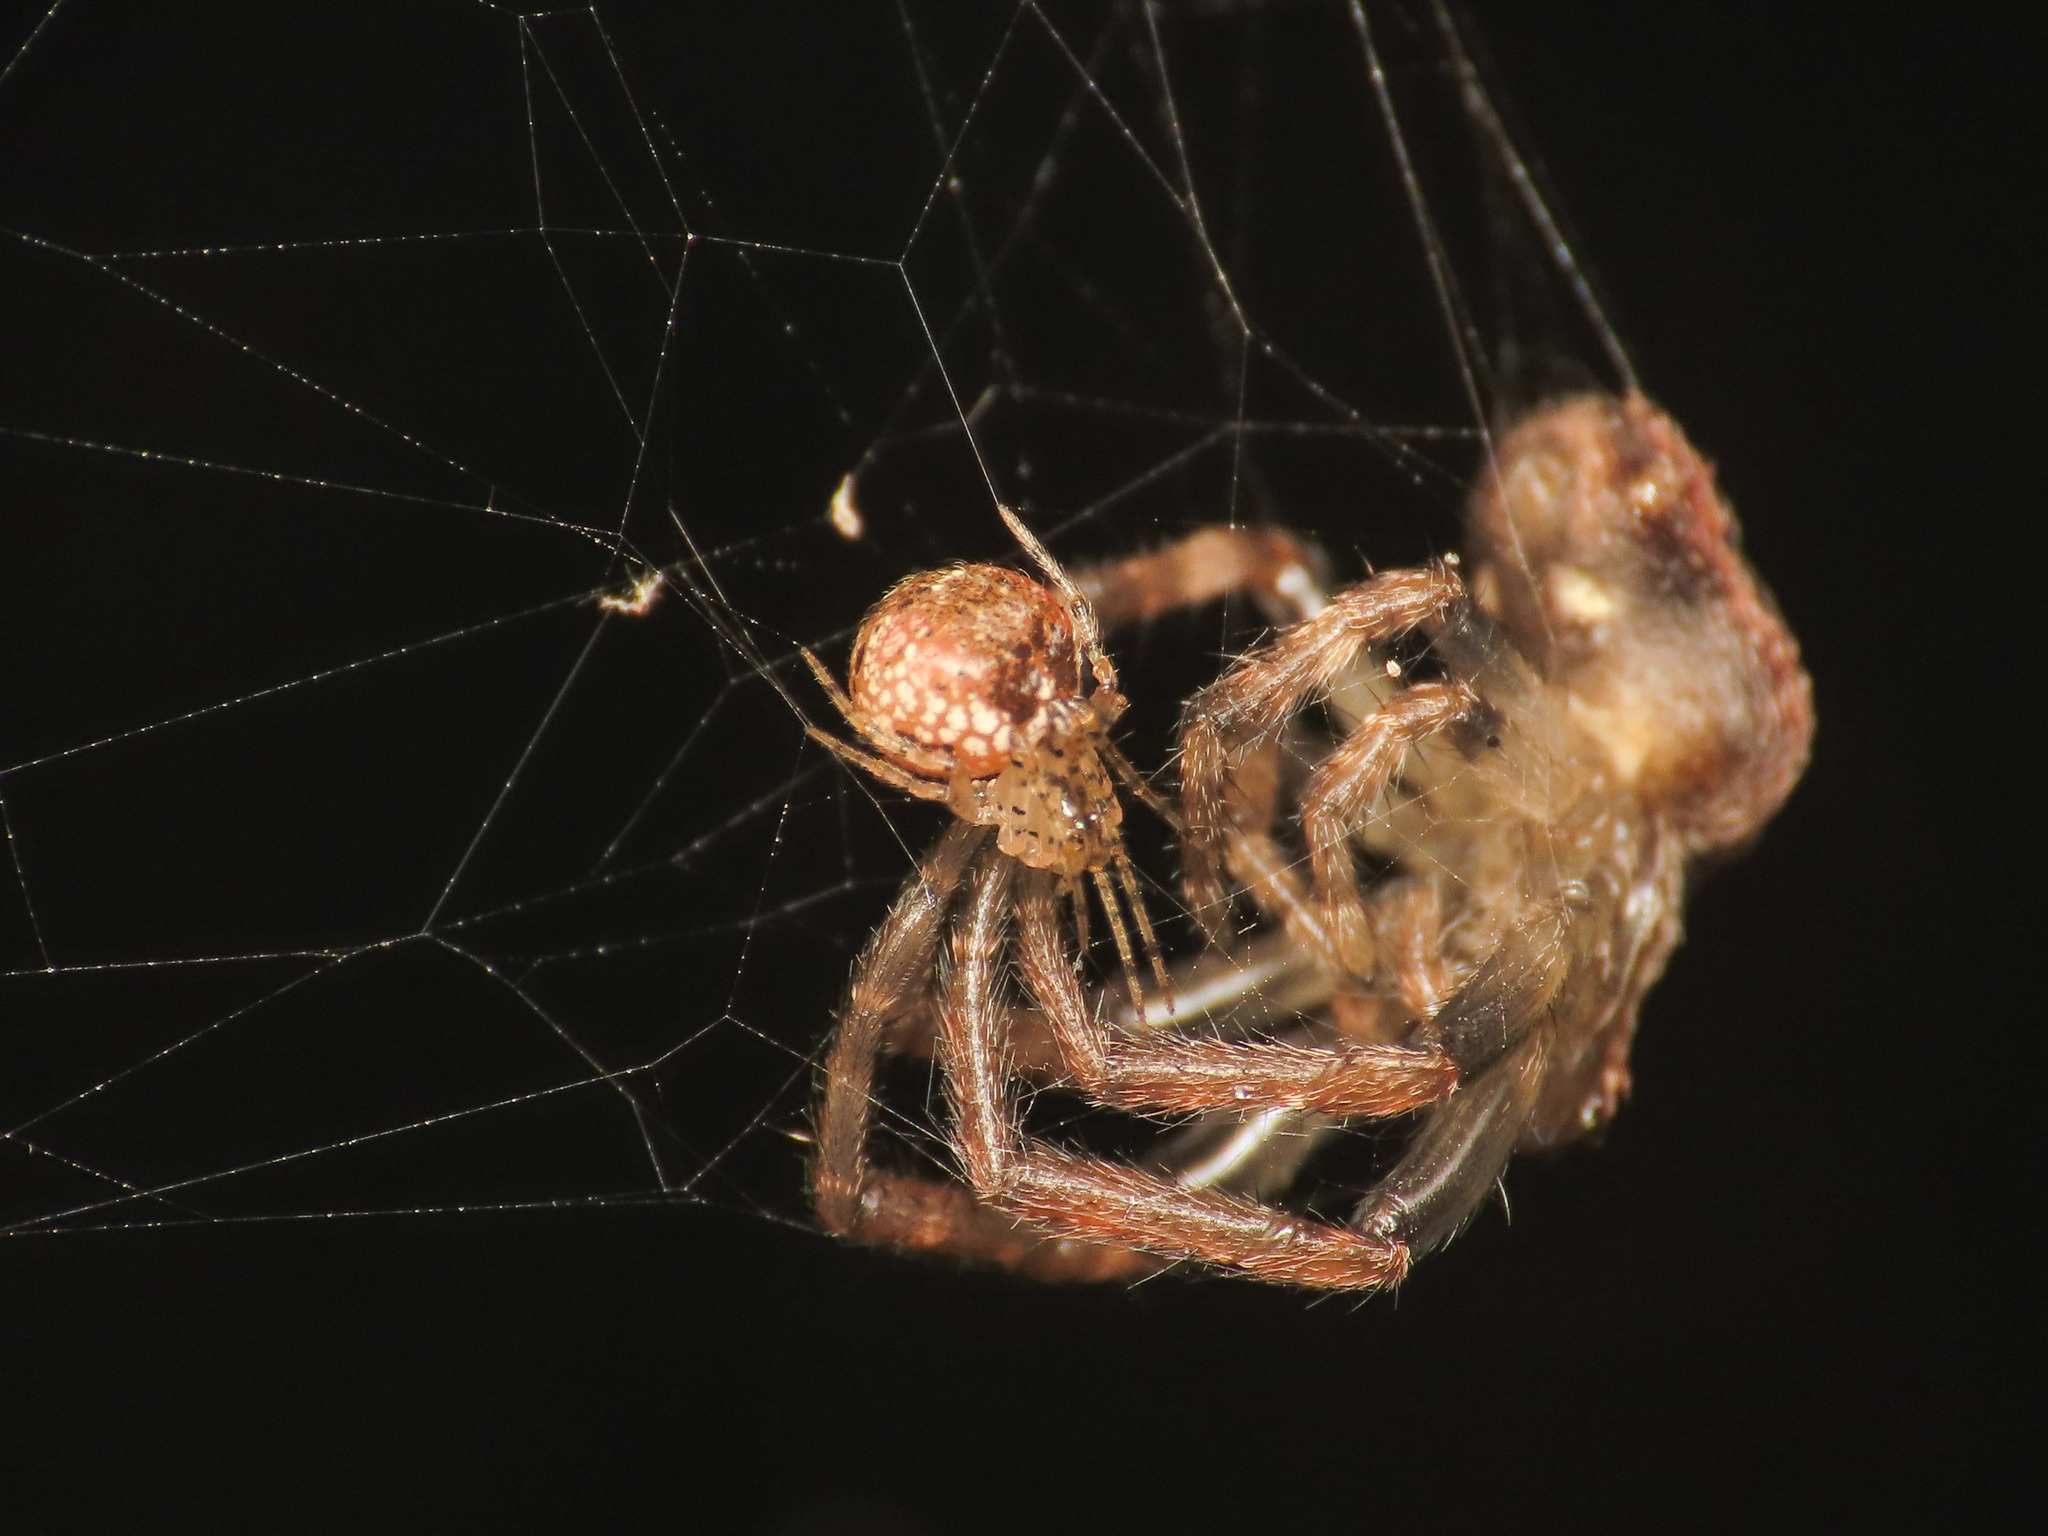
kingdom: Animalia
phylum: Arthropoda
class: Arachnida
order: Araneae
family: Theridiidae
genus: Platnickina
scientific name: Platnickina tincta
